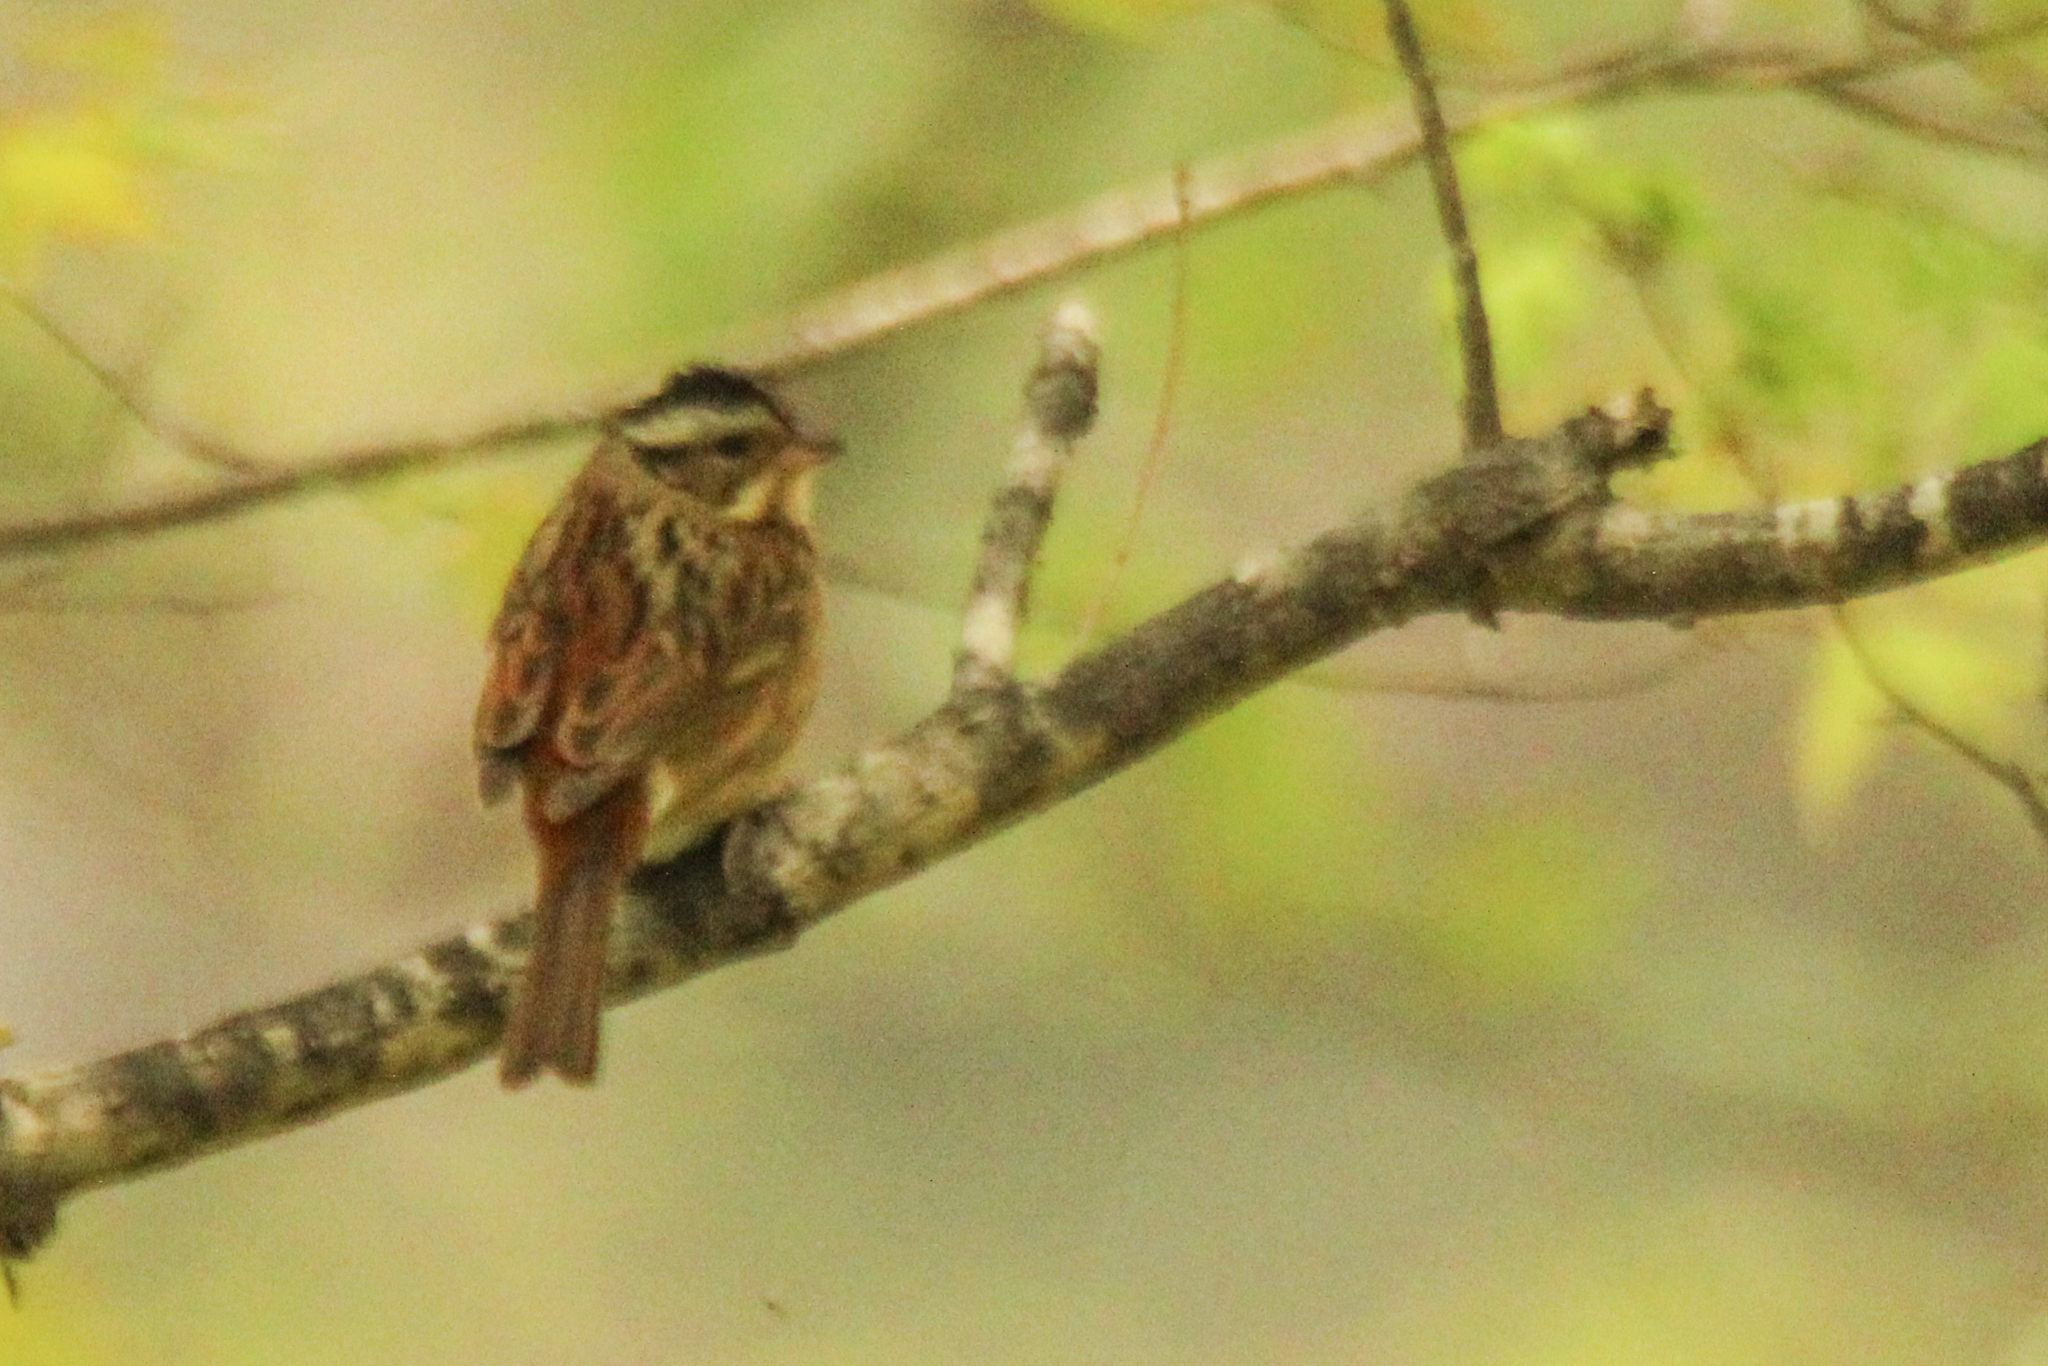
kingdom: Animalia
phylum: Chordata
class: Aves
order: Passeriformes
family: Emberizidae
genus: Emberiza
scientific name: Emberiza tristrami
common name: Tristram's bunting
